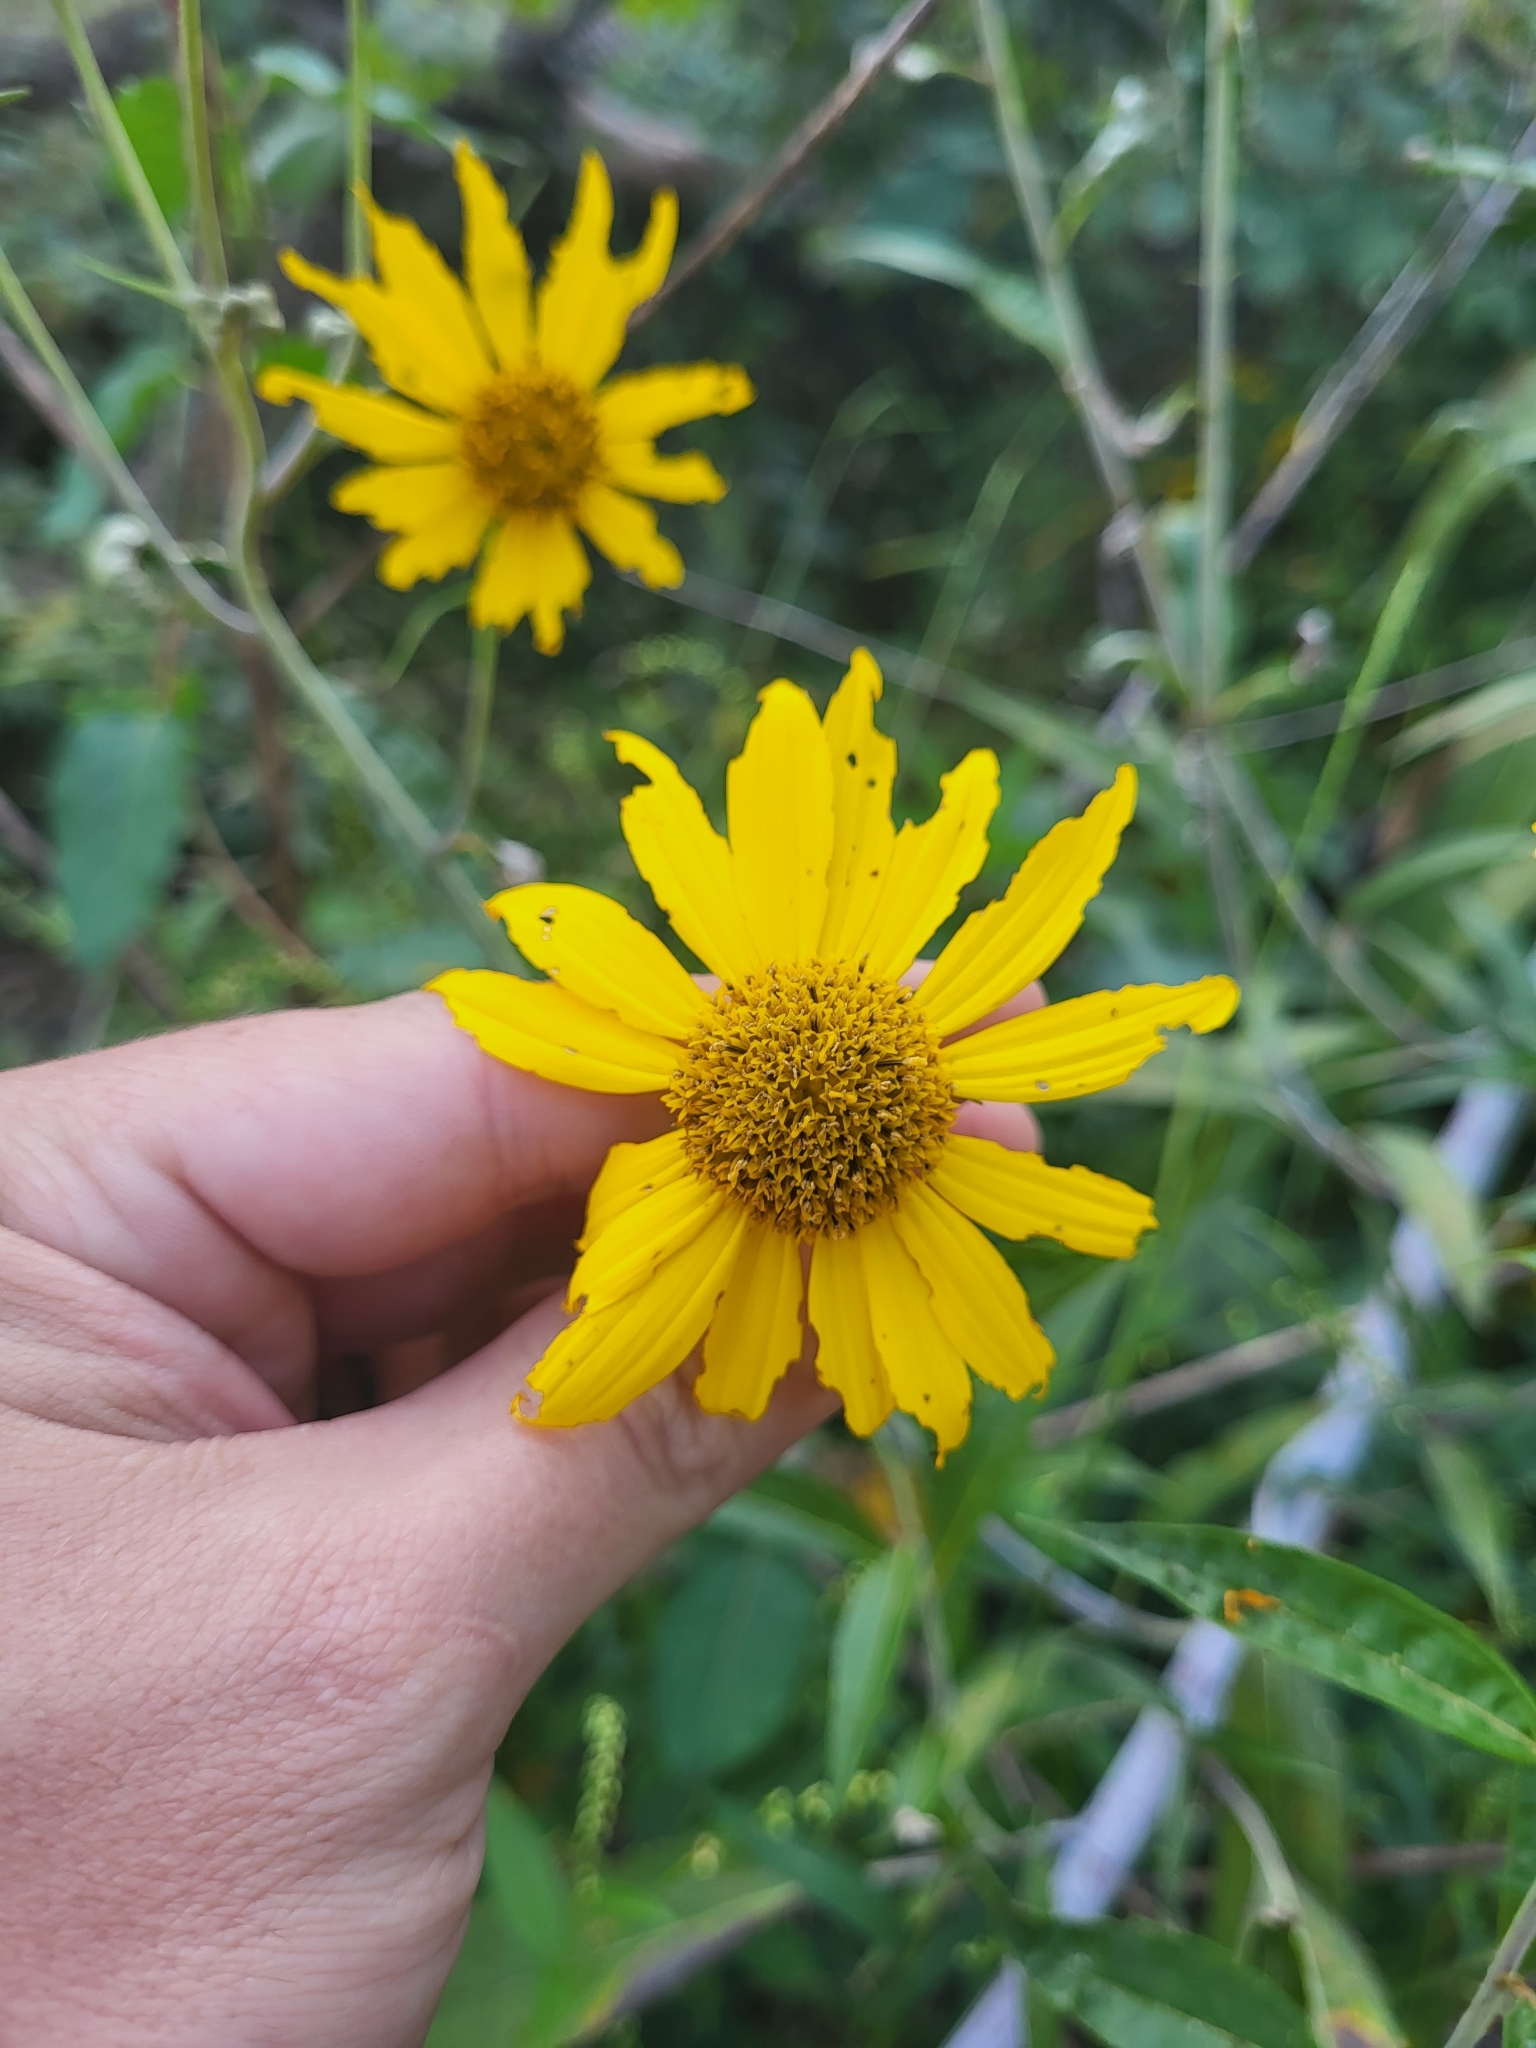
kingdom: Plantae
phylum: Tracheophyta
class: Magnoliopsida
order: Asterales
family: Asteraceae
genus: Helianthus
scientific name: Helianthus grosseserratus
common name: Sawtooth sunflower
